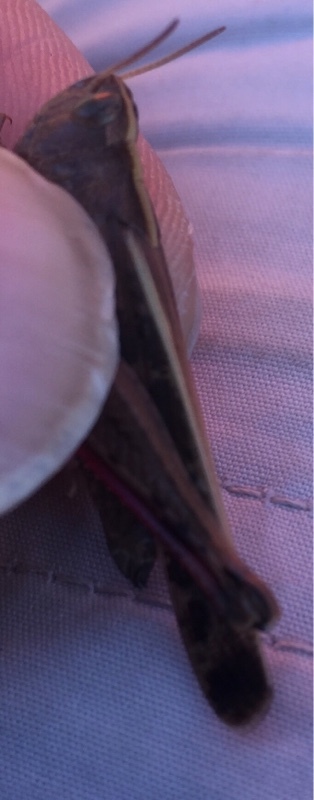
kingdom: Animalia
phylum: Arthropoda
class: Insecta
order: Orthoptera
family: Acrididae
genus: Aiolopus
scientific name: Aiolopus strepens
